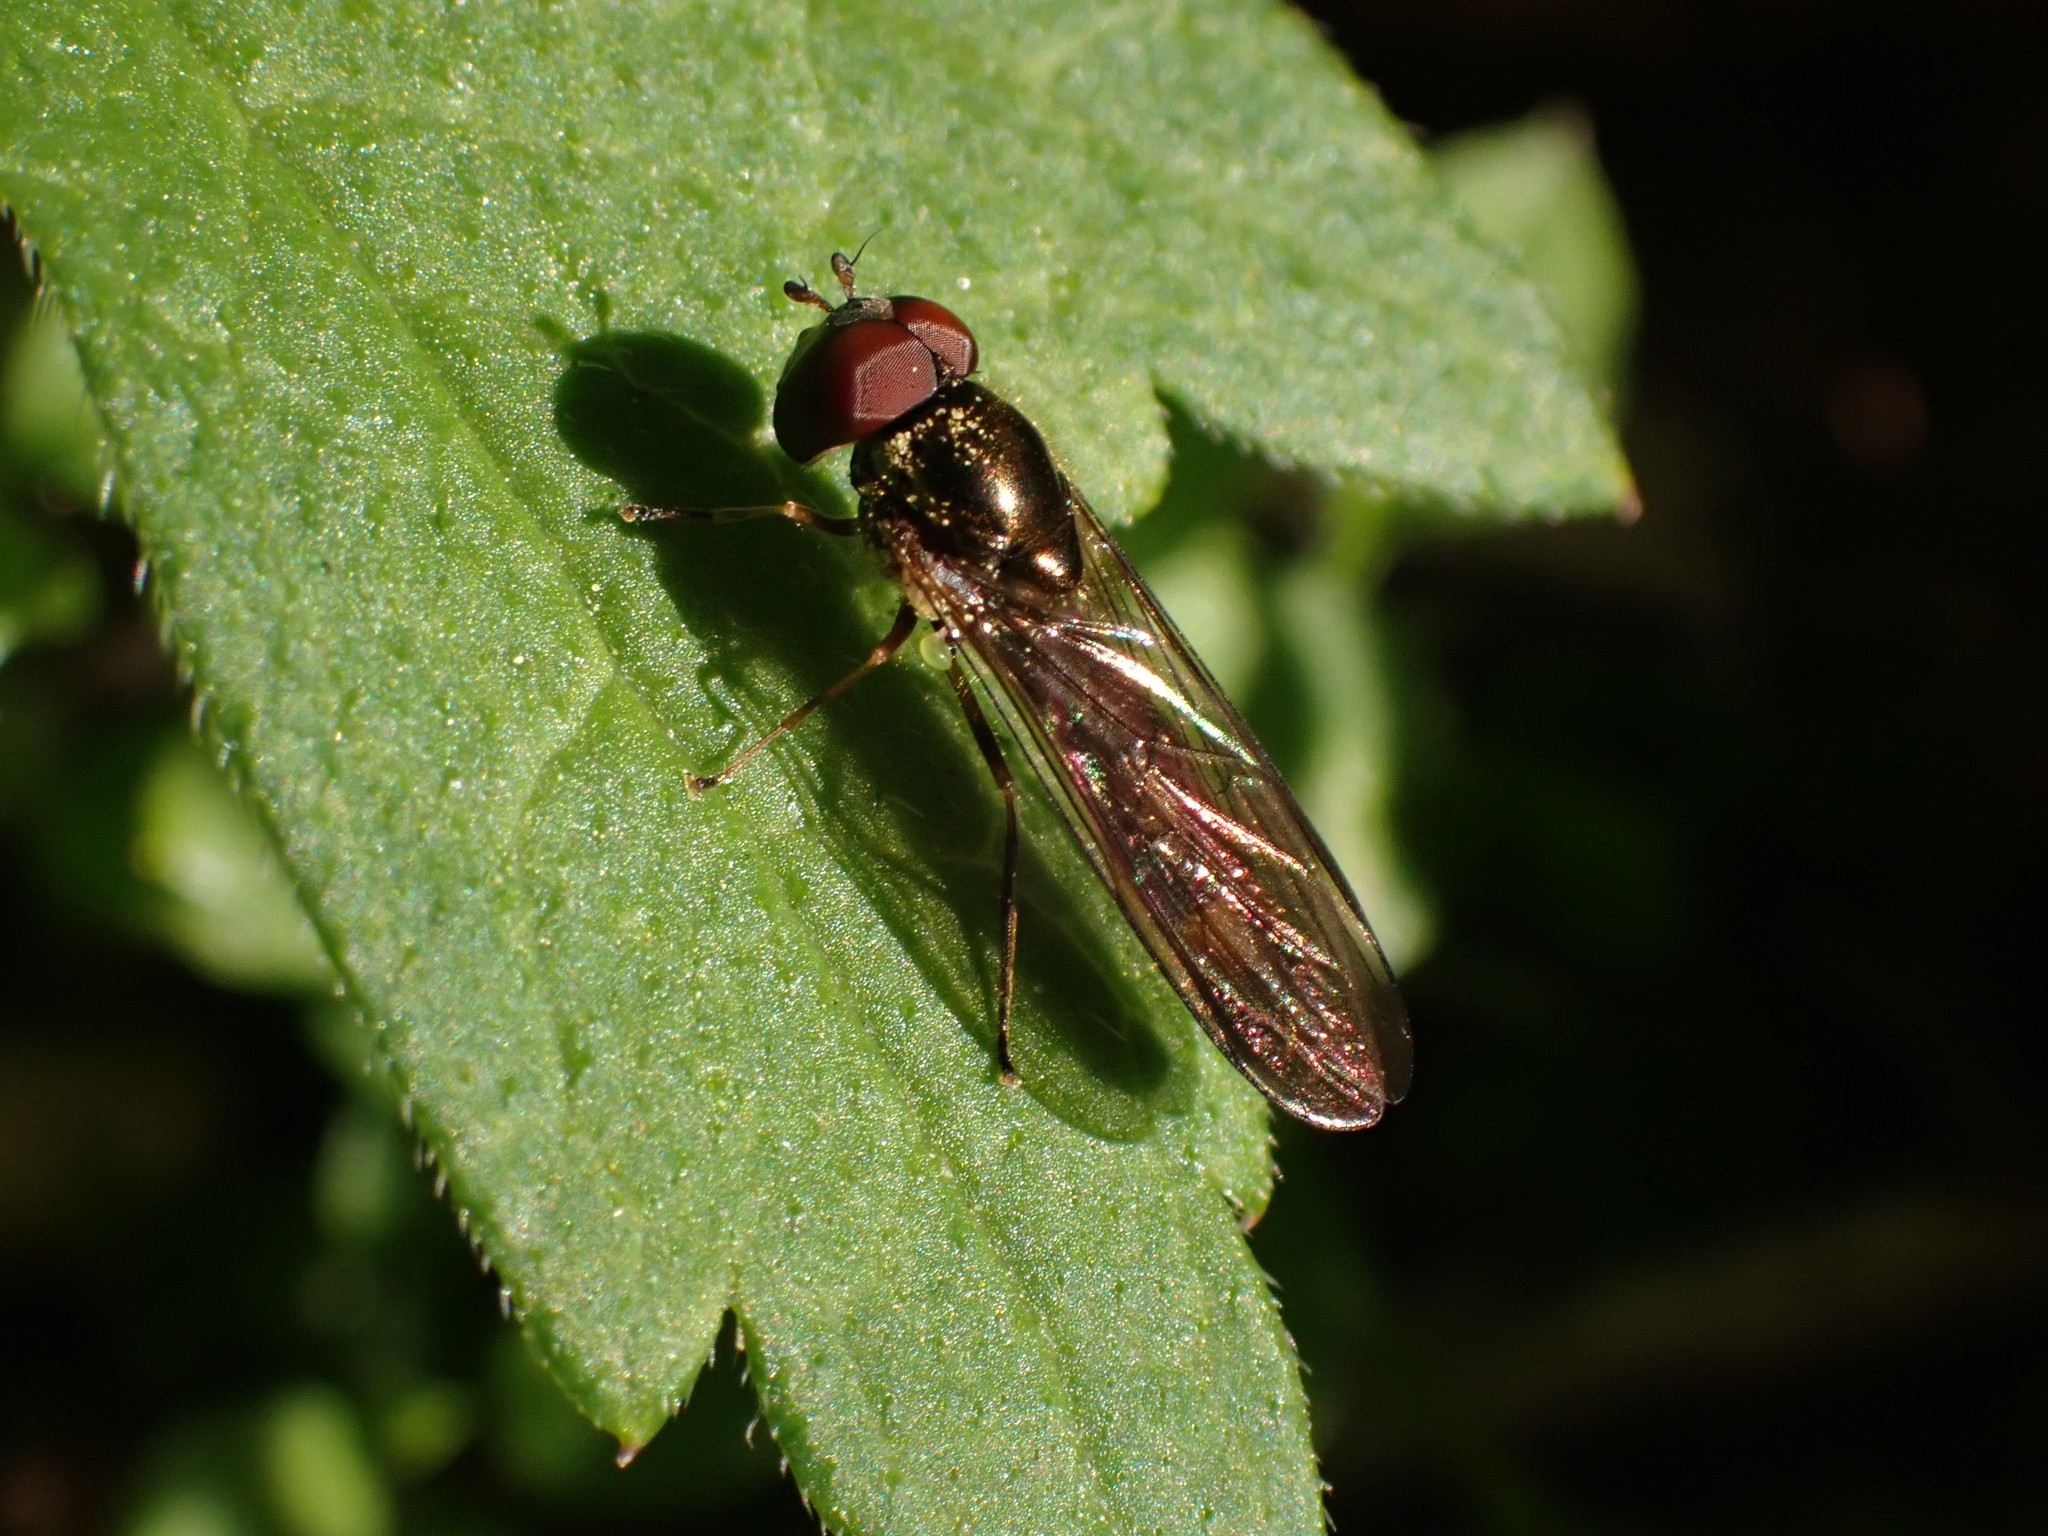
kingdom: Animalia
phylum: Arthropoda
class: Insecta
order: Diptera
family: Syrphidae
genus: Melanostoma
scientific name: Melanostoma mellina
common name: Hover fly
